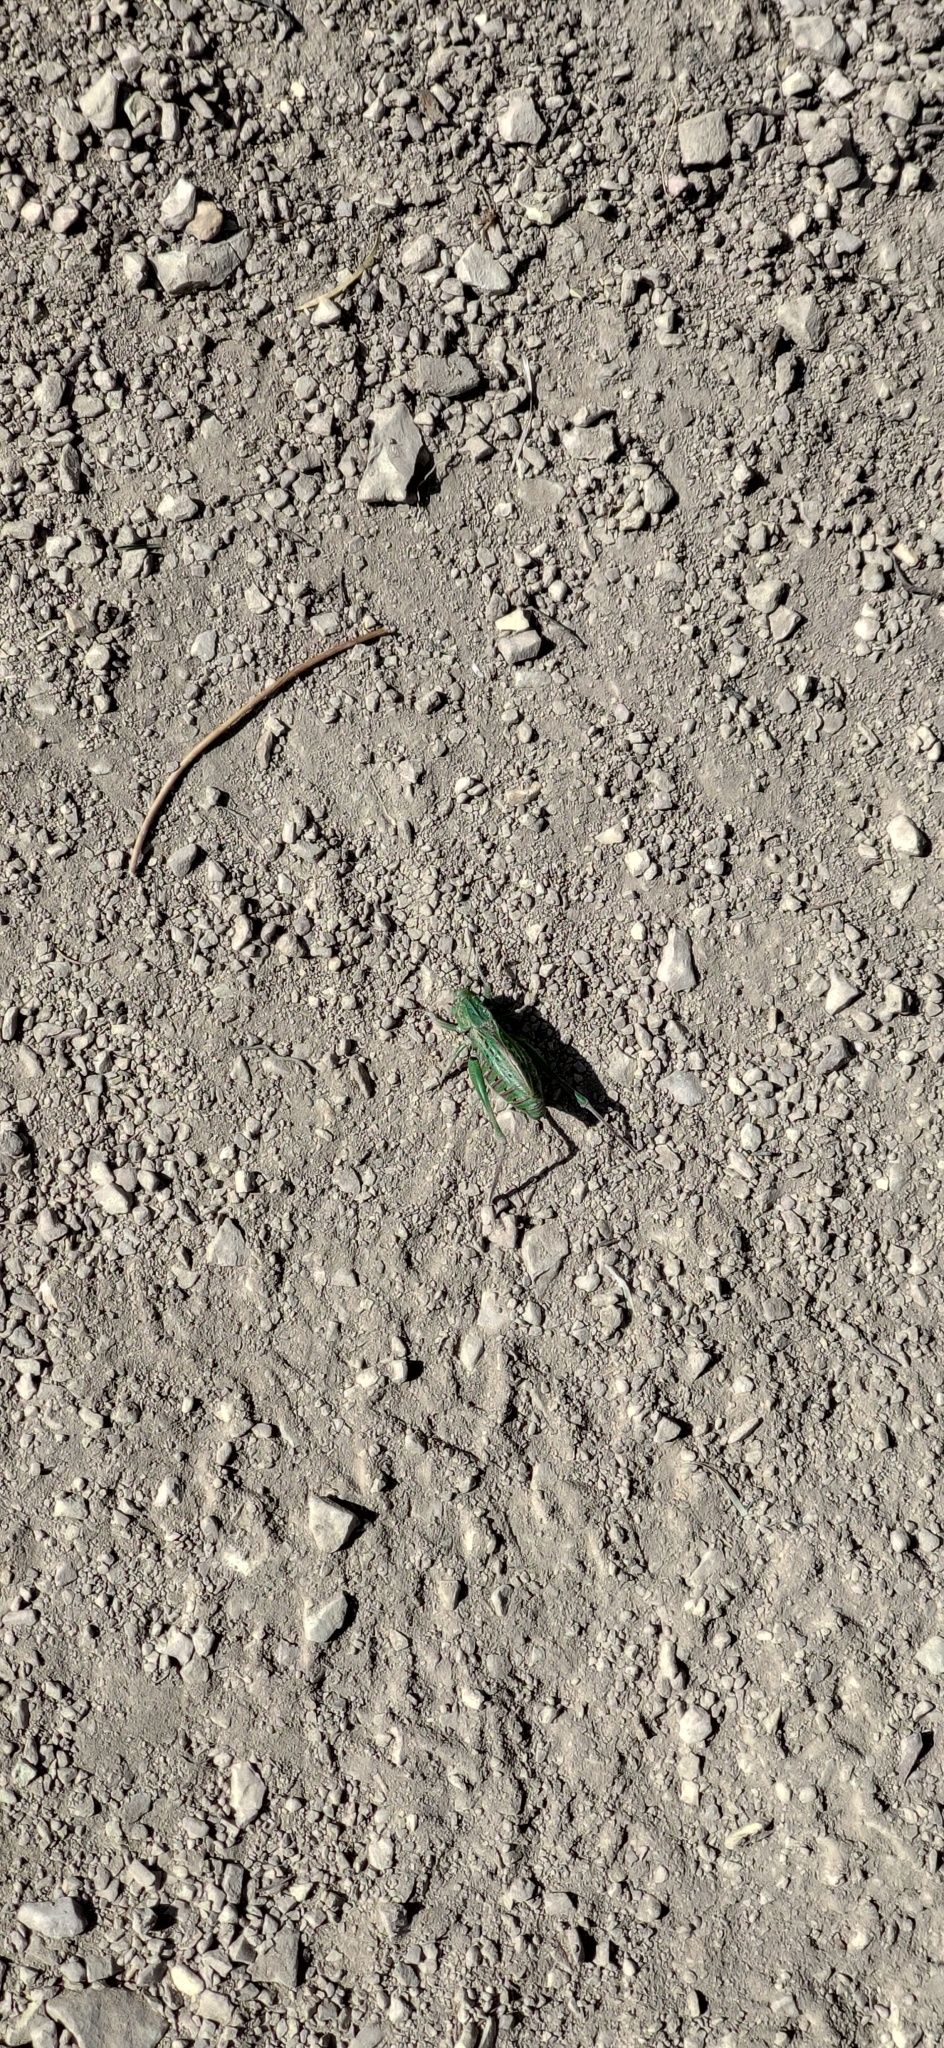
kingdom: Animalia
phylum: Arthropoda
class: Insecta
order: Orthoptera
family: Tettigoniidae
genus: Decticus
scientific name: Decticus verrucivorus
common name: Wart-biter
